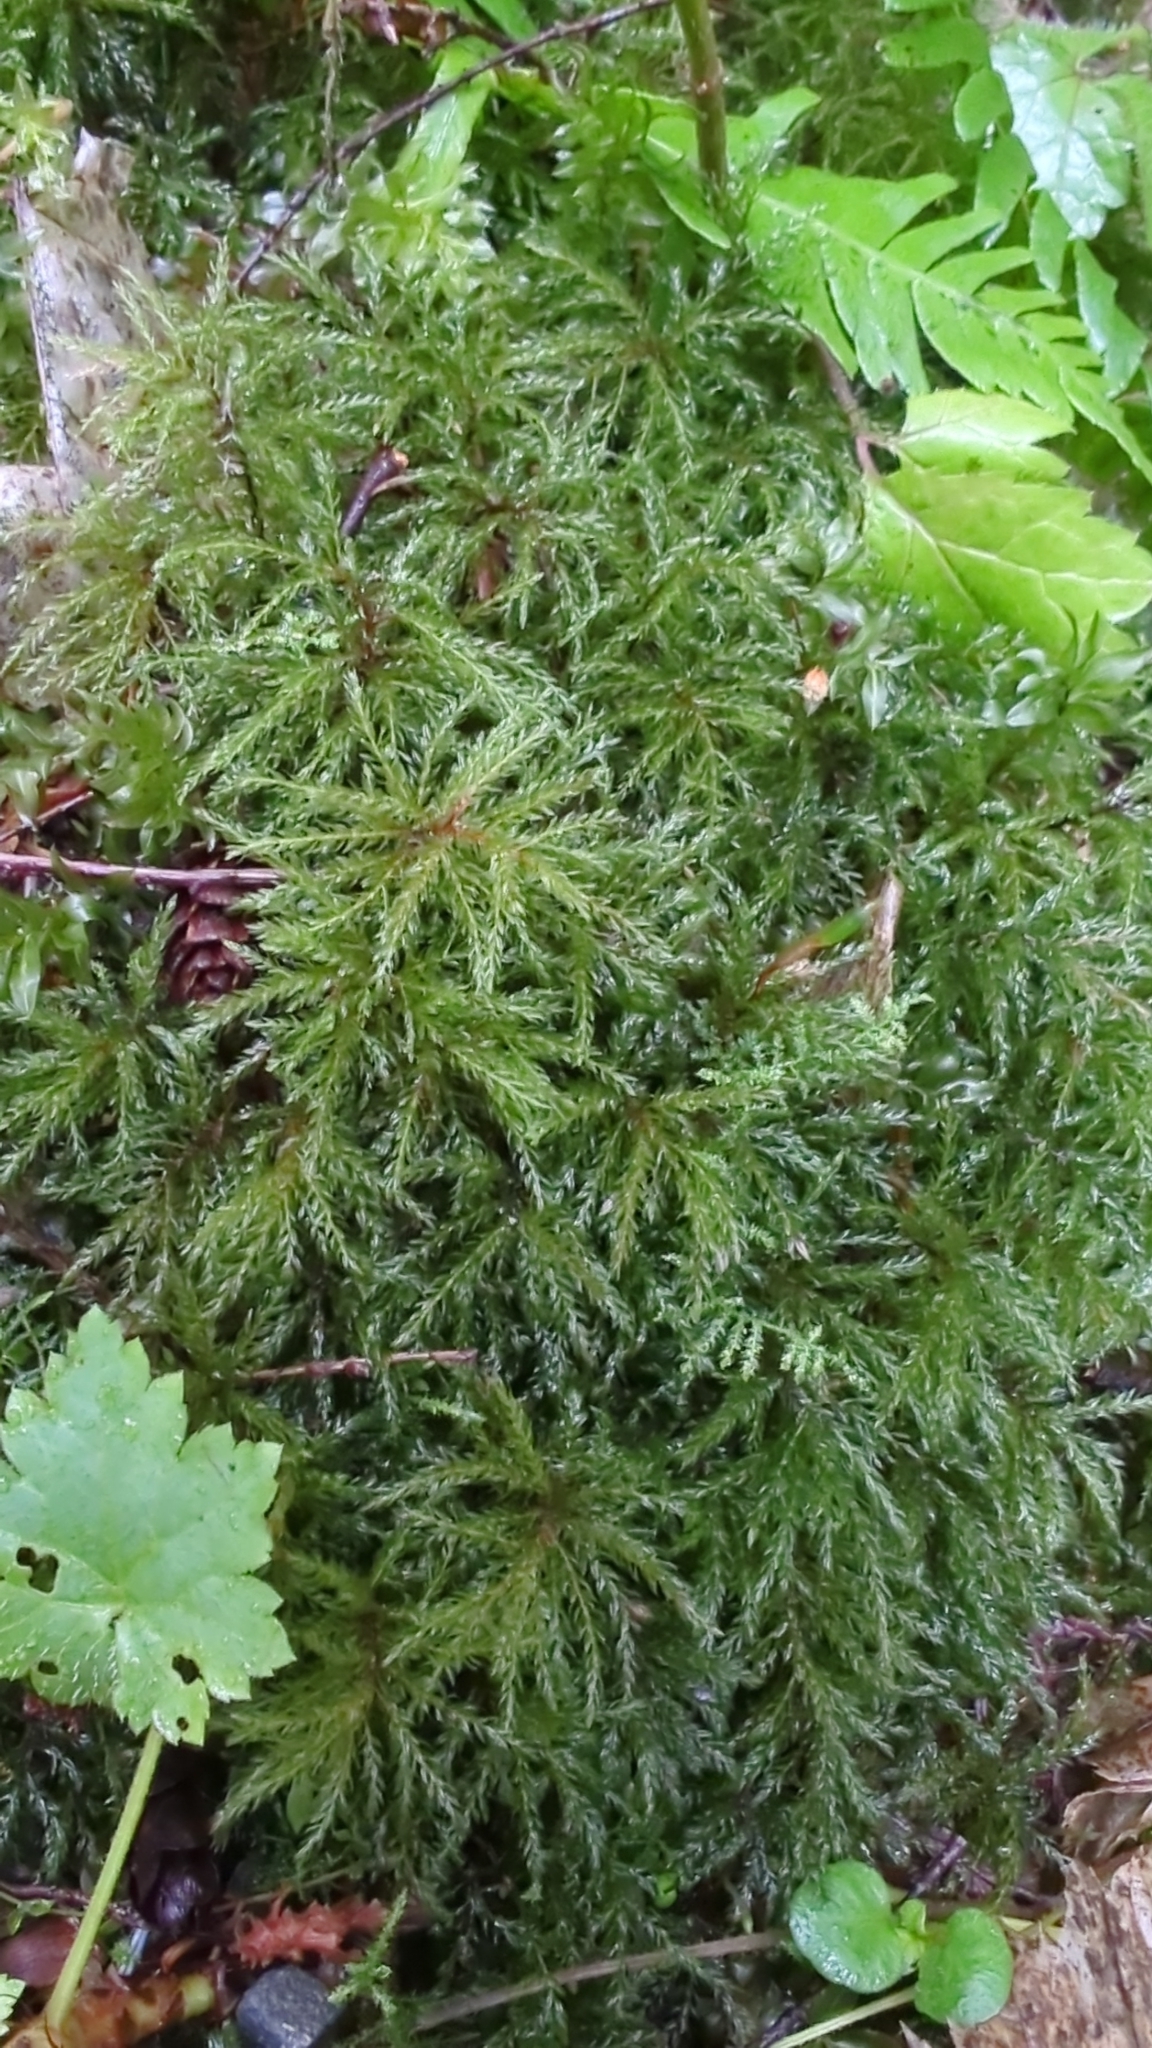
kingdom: Plantae
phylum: Bryophyta
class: Bryopsida
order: Bryales
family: Mniaceae
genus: Leucolepis
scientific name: Leucolepis acanthoneura
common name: Leucolepis umbrella moss
